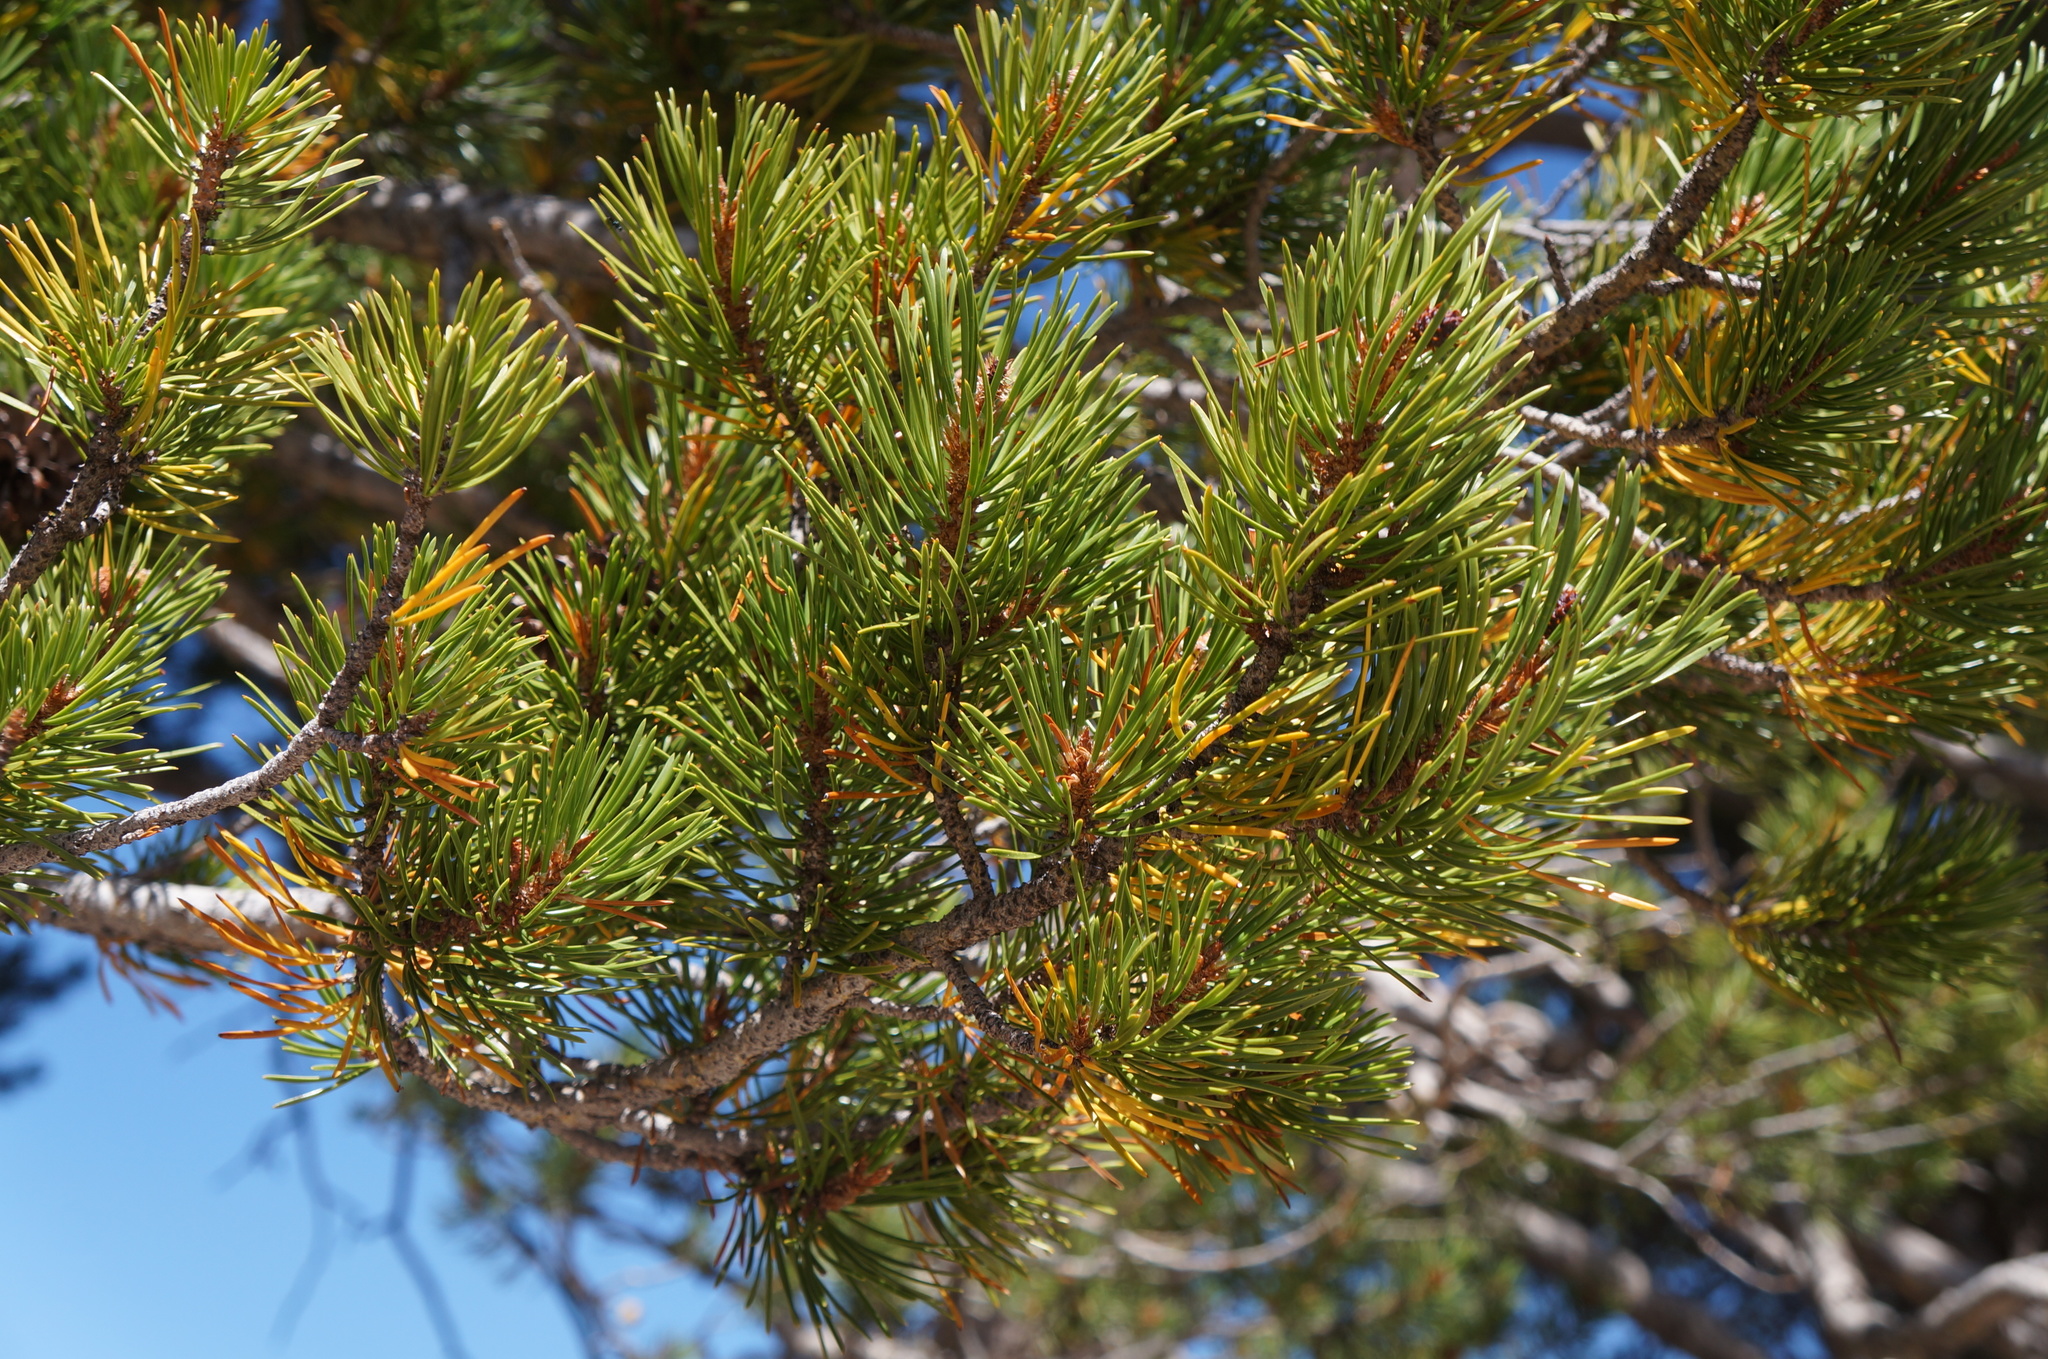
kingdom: Plantae
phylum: Tracheophyta
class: Pinopsida
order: Pinales
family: Pinaceae
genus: Pinus
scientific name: Pinus contorta
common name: Lodgepole pine
